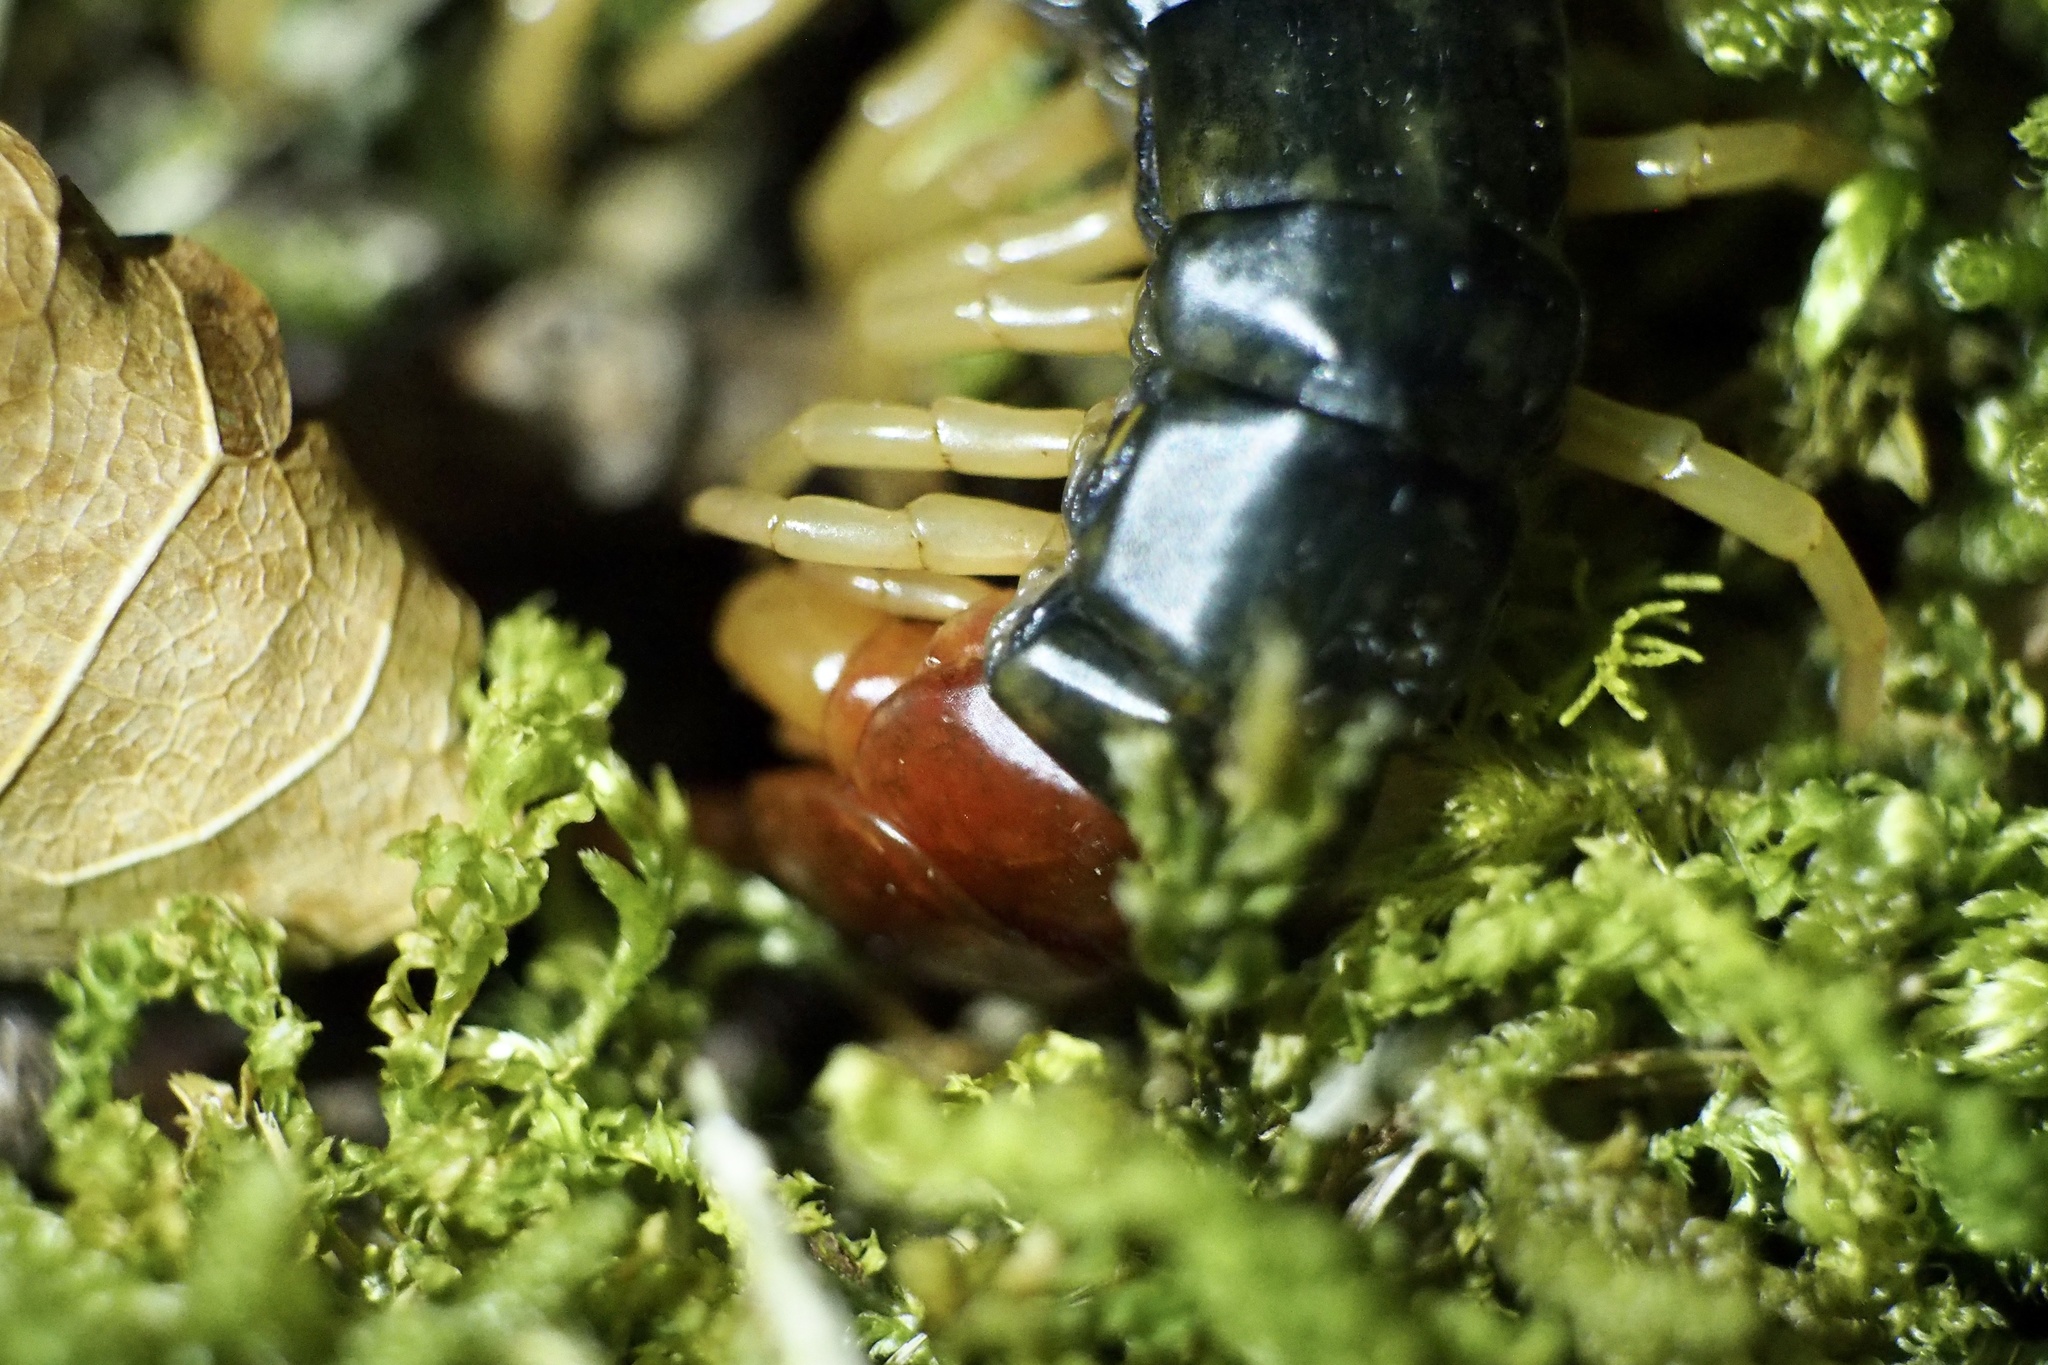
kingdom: Animalia
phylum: Arthropoda
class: Chilopoda
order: Scolopendromorpha
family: Scolopendridae
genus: Scolopendra
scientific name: Scolopendra mutilans
